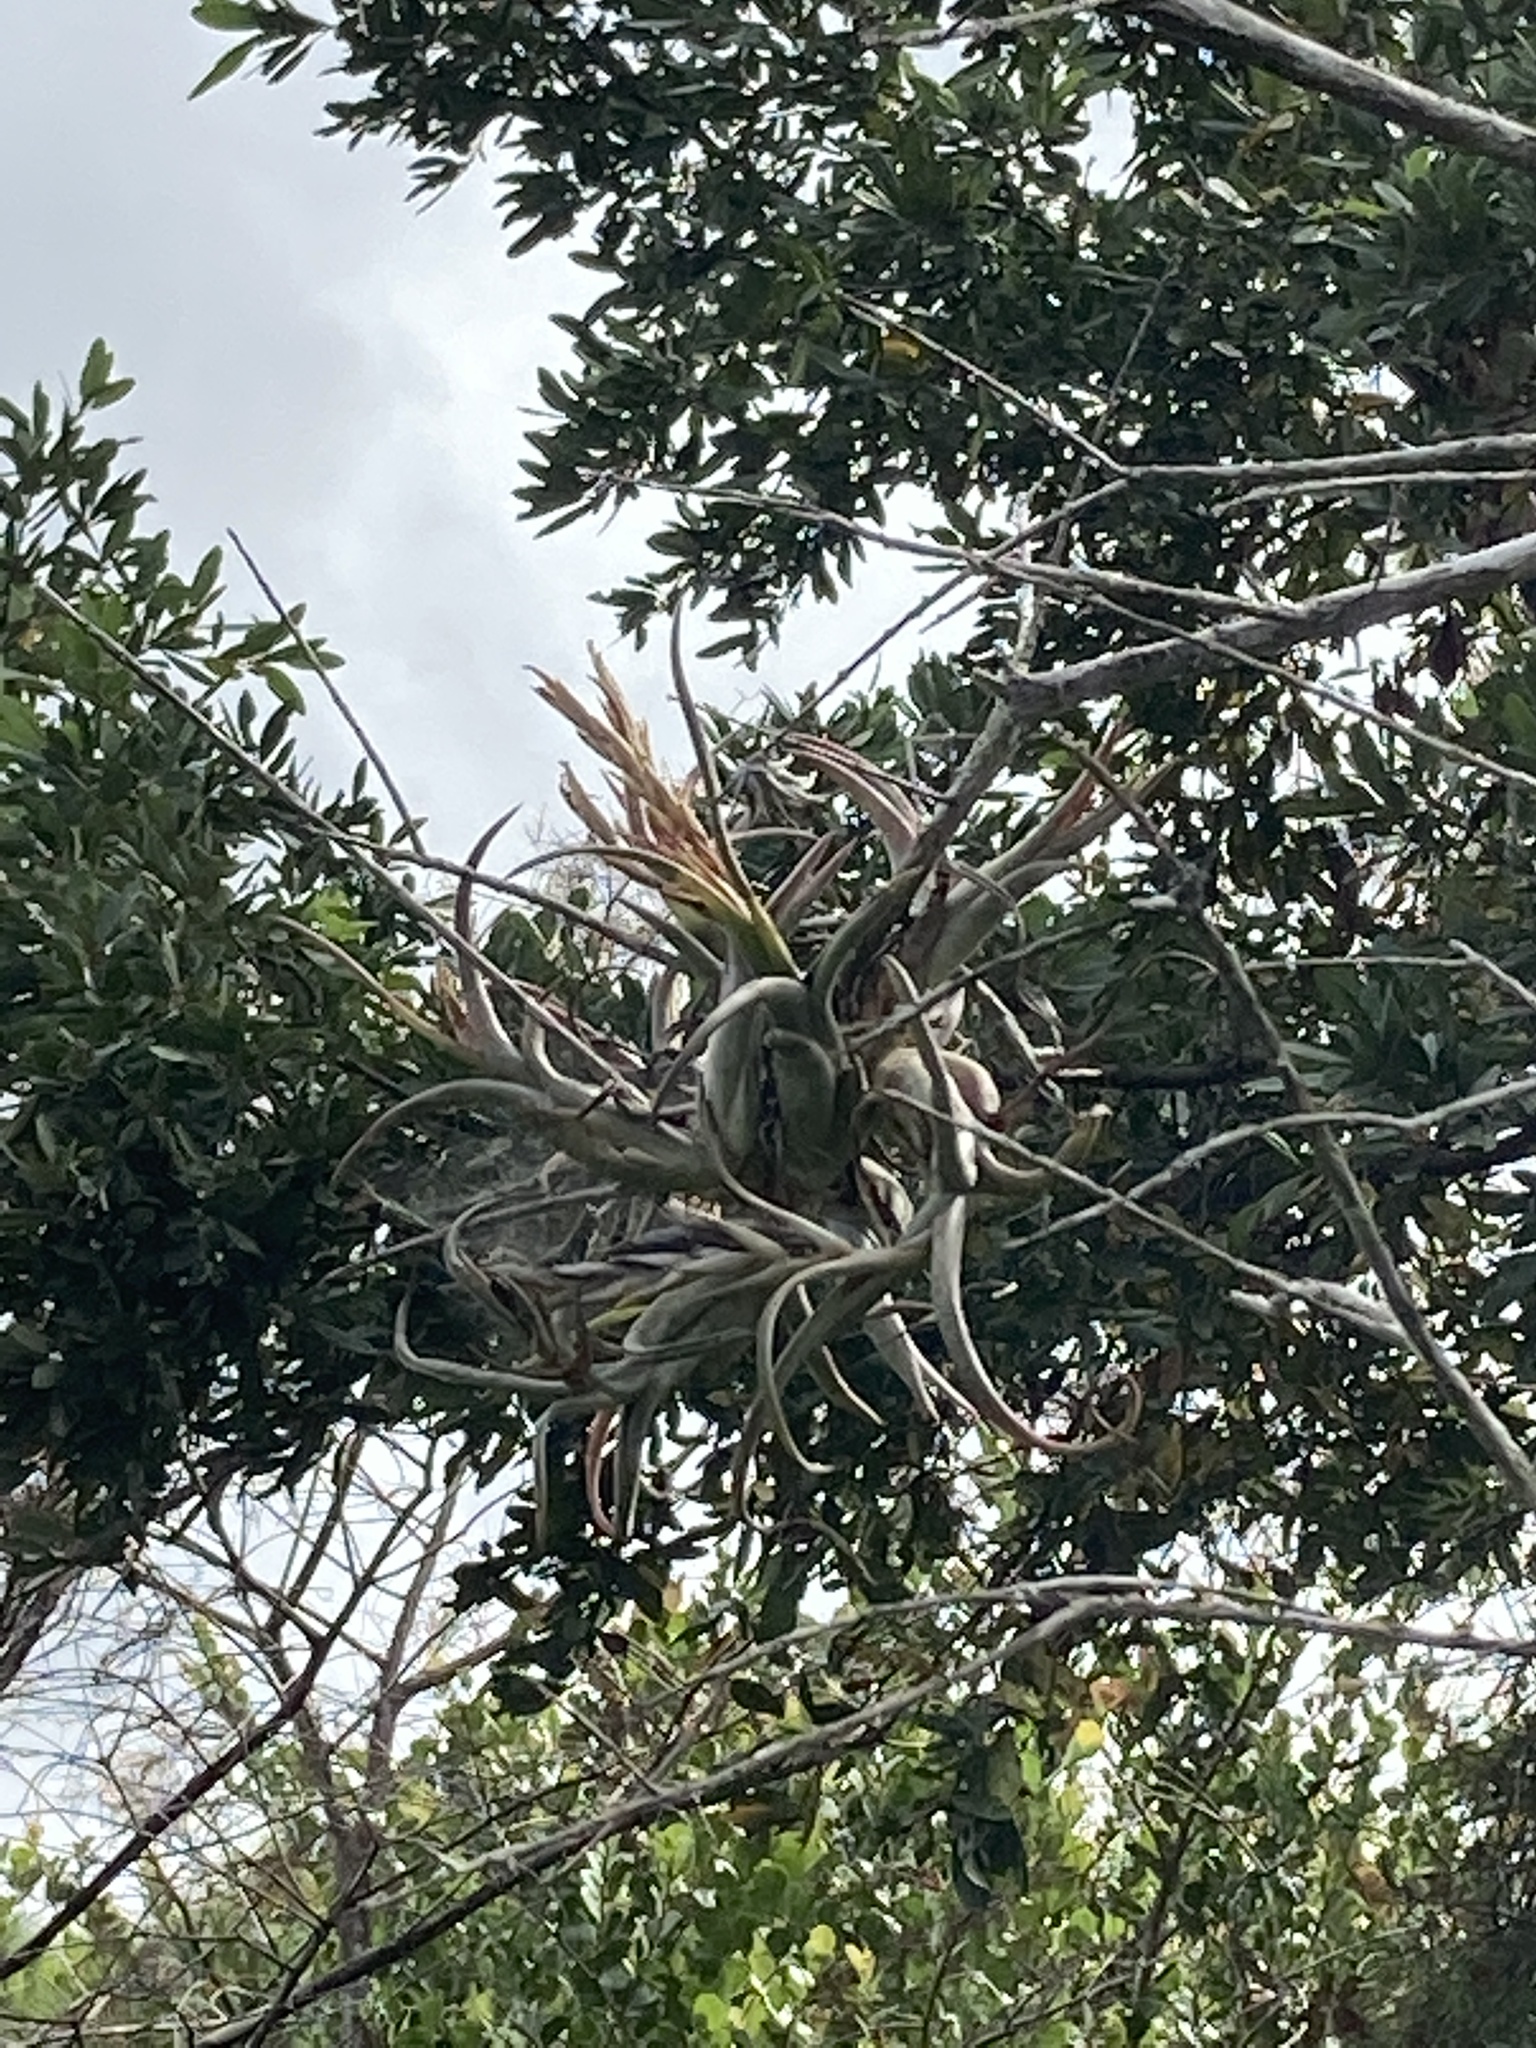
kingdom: Plantae
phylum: Tracheophyta
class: Liliopsida
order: Poales
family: Bromeliaceae
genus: Tillandsia
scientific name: Tillandsia paucifolia
